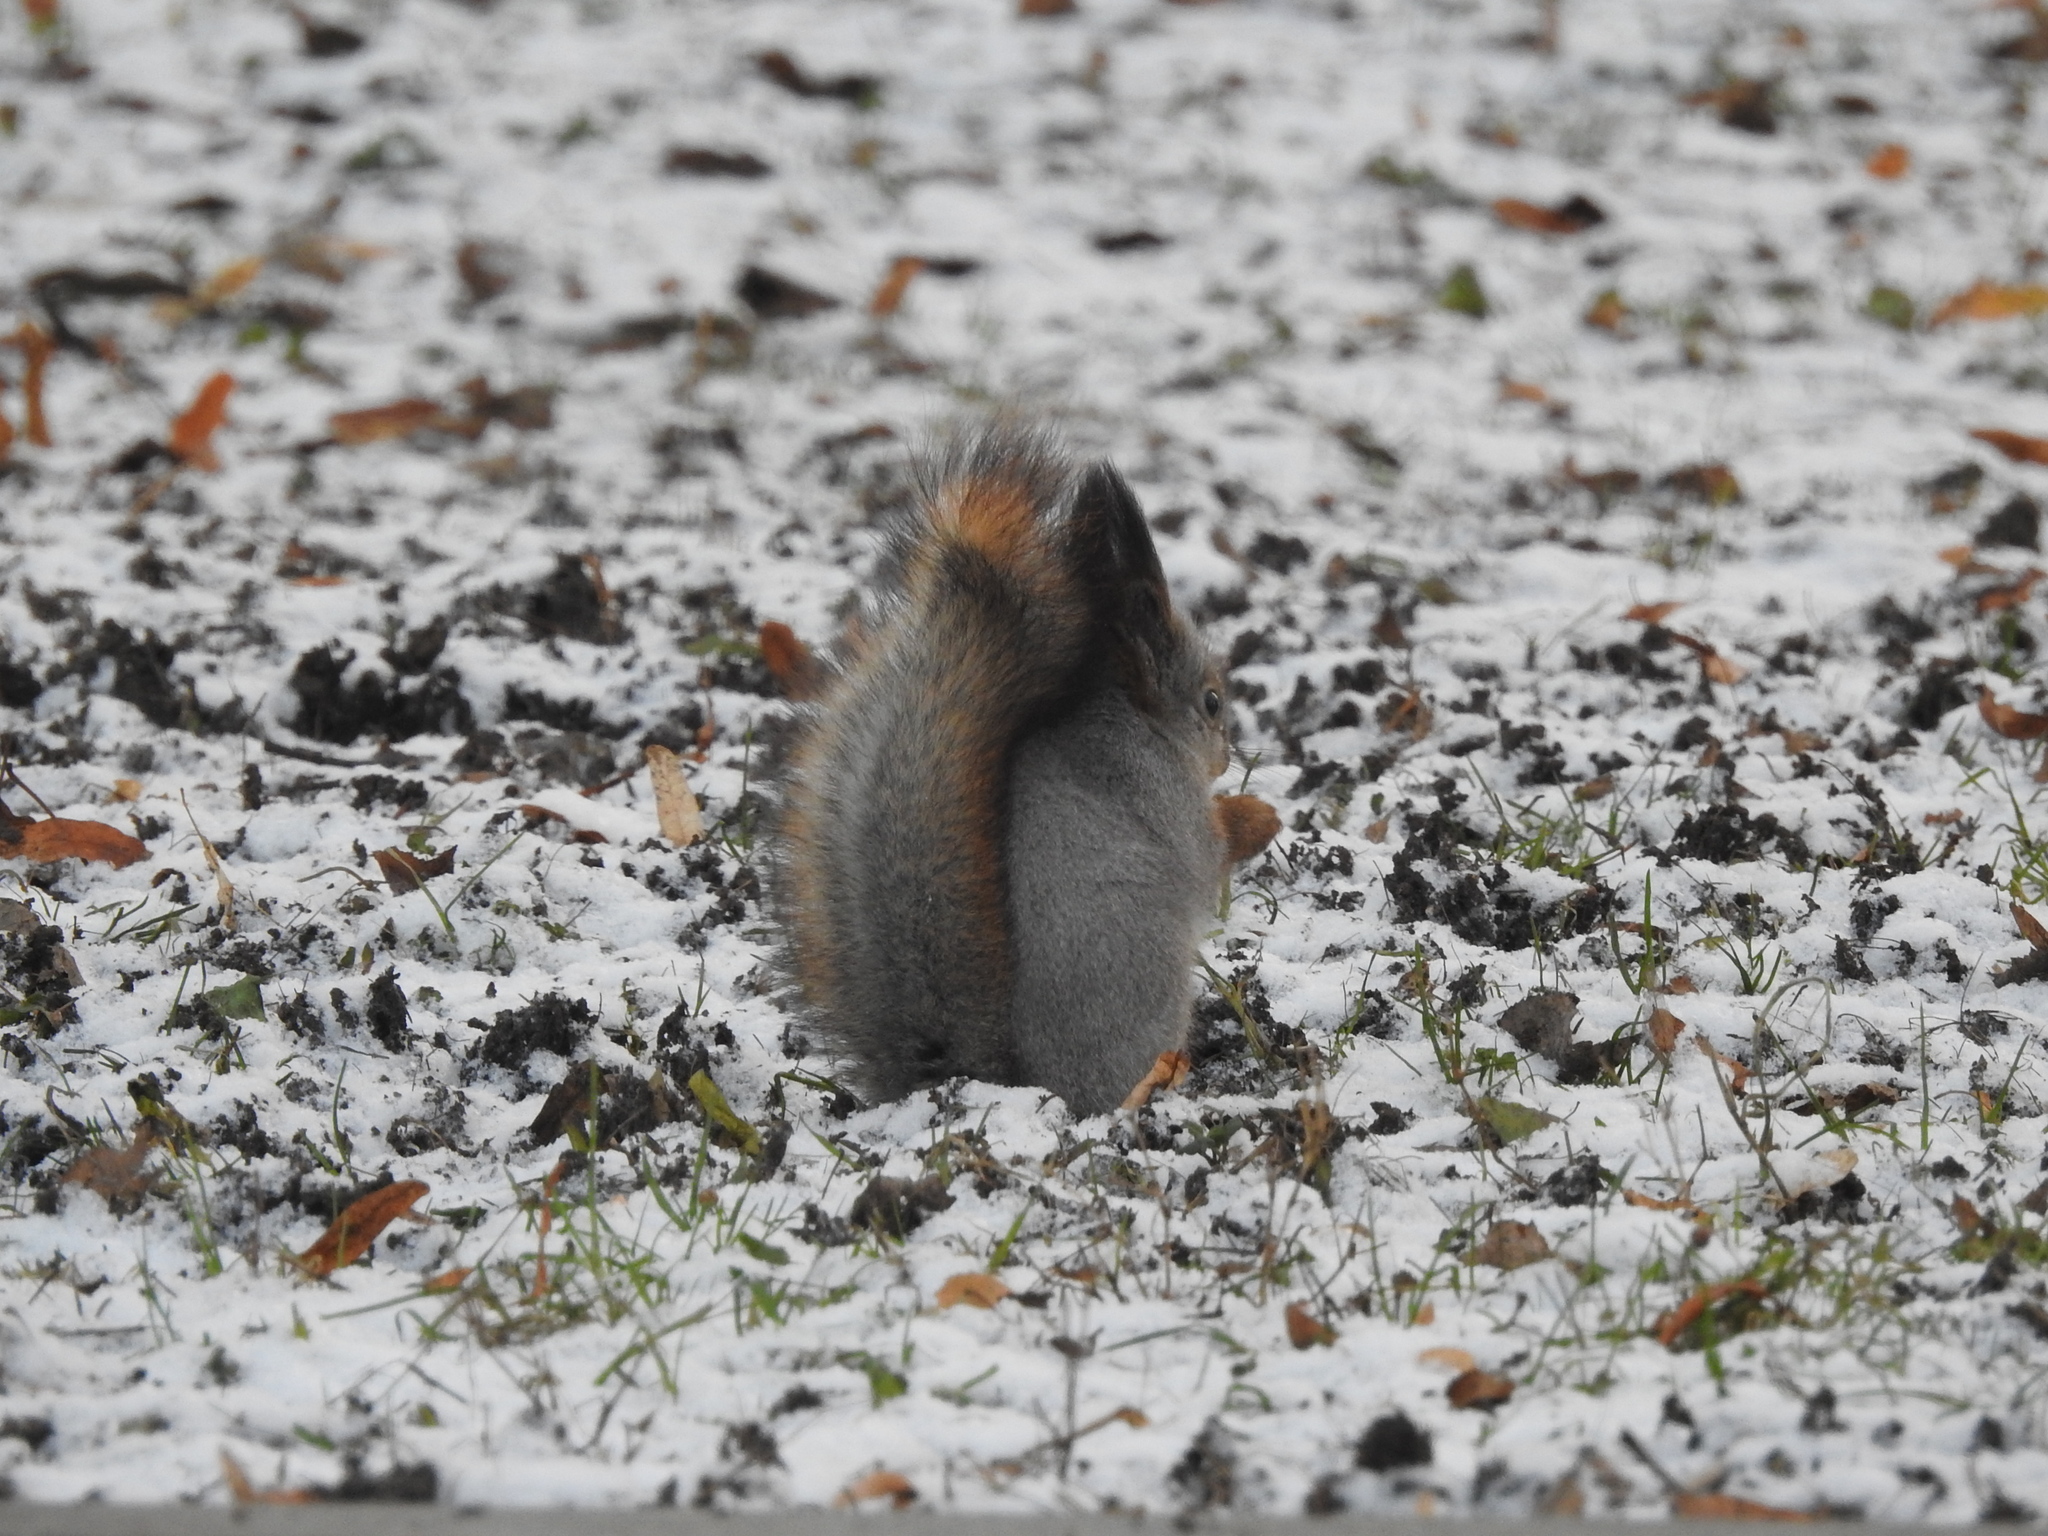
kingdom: Animalia
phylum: Chordata
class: Mammalia
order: Rodentia
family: Sciuridae
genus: Sciurus
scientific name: Sciurus vulgaris
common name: Eurasian red squirrel
